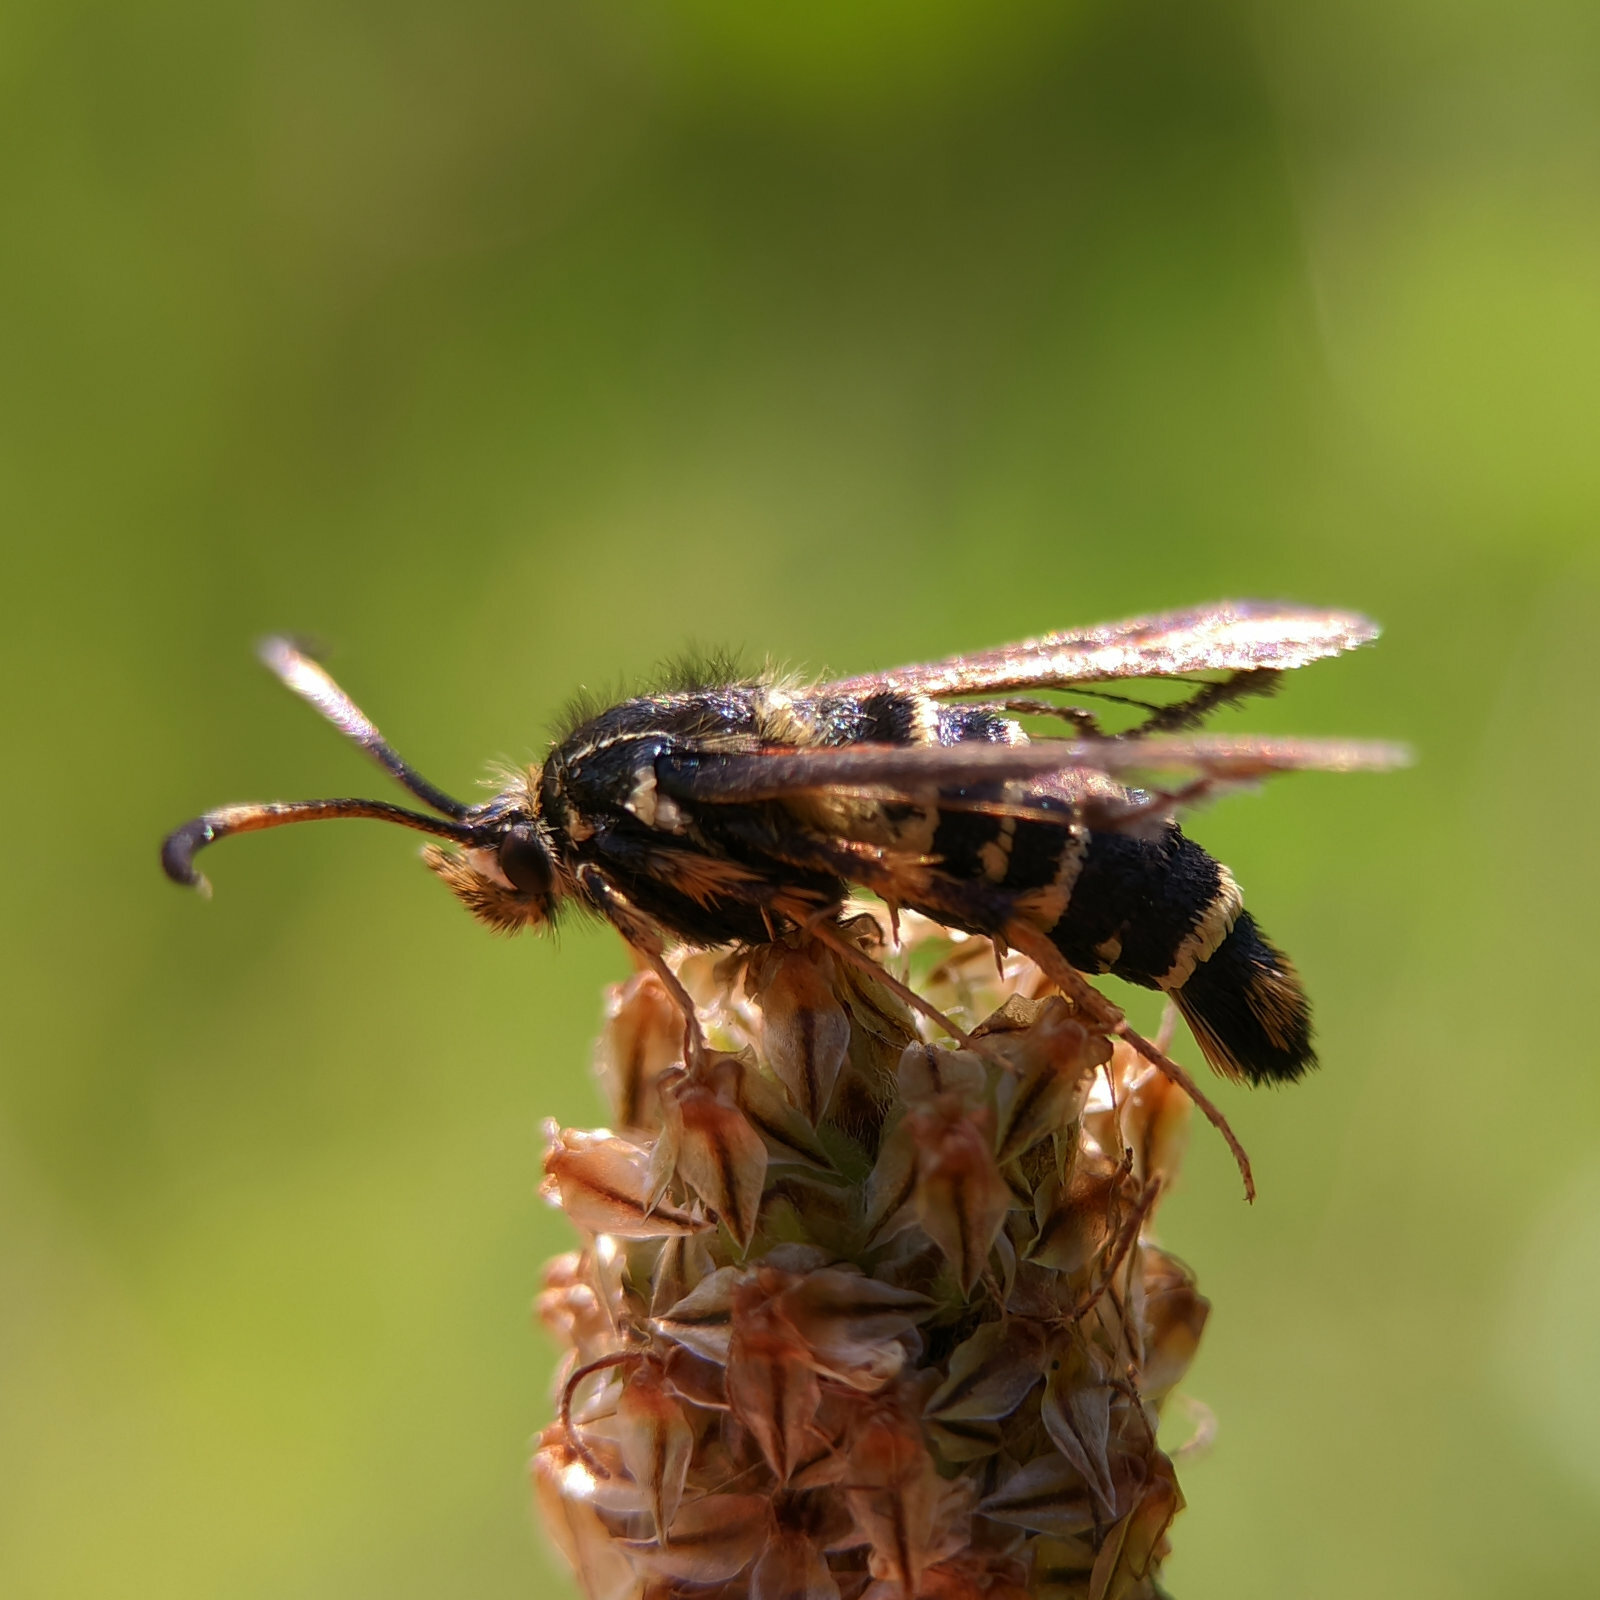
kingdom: Animalia
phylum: Arthropoda
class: Insecta
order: Lepidoptera
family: Sesiidae
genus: Bembecia
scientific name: Bembecia ichneumoniformis
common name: Six-belted clearwing
